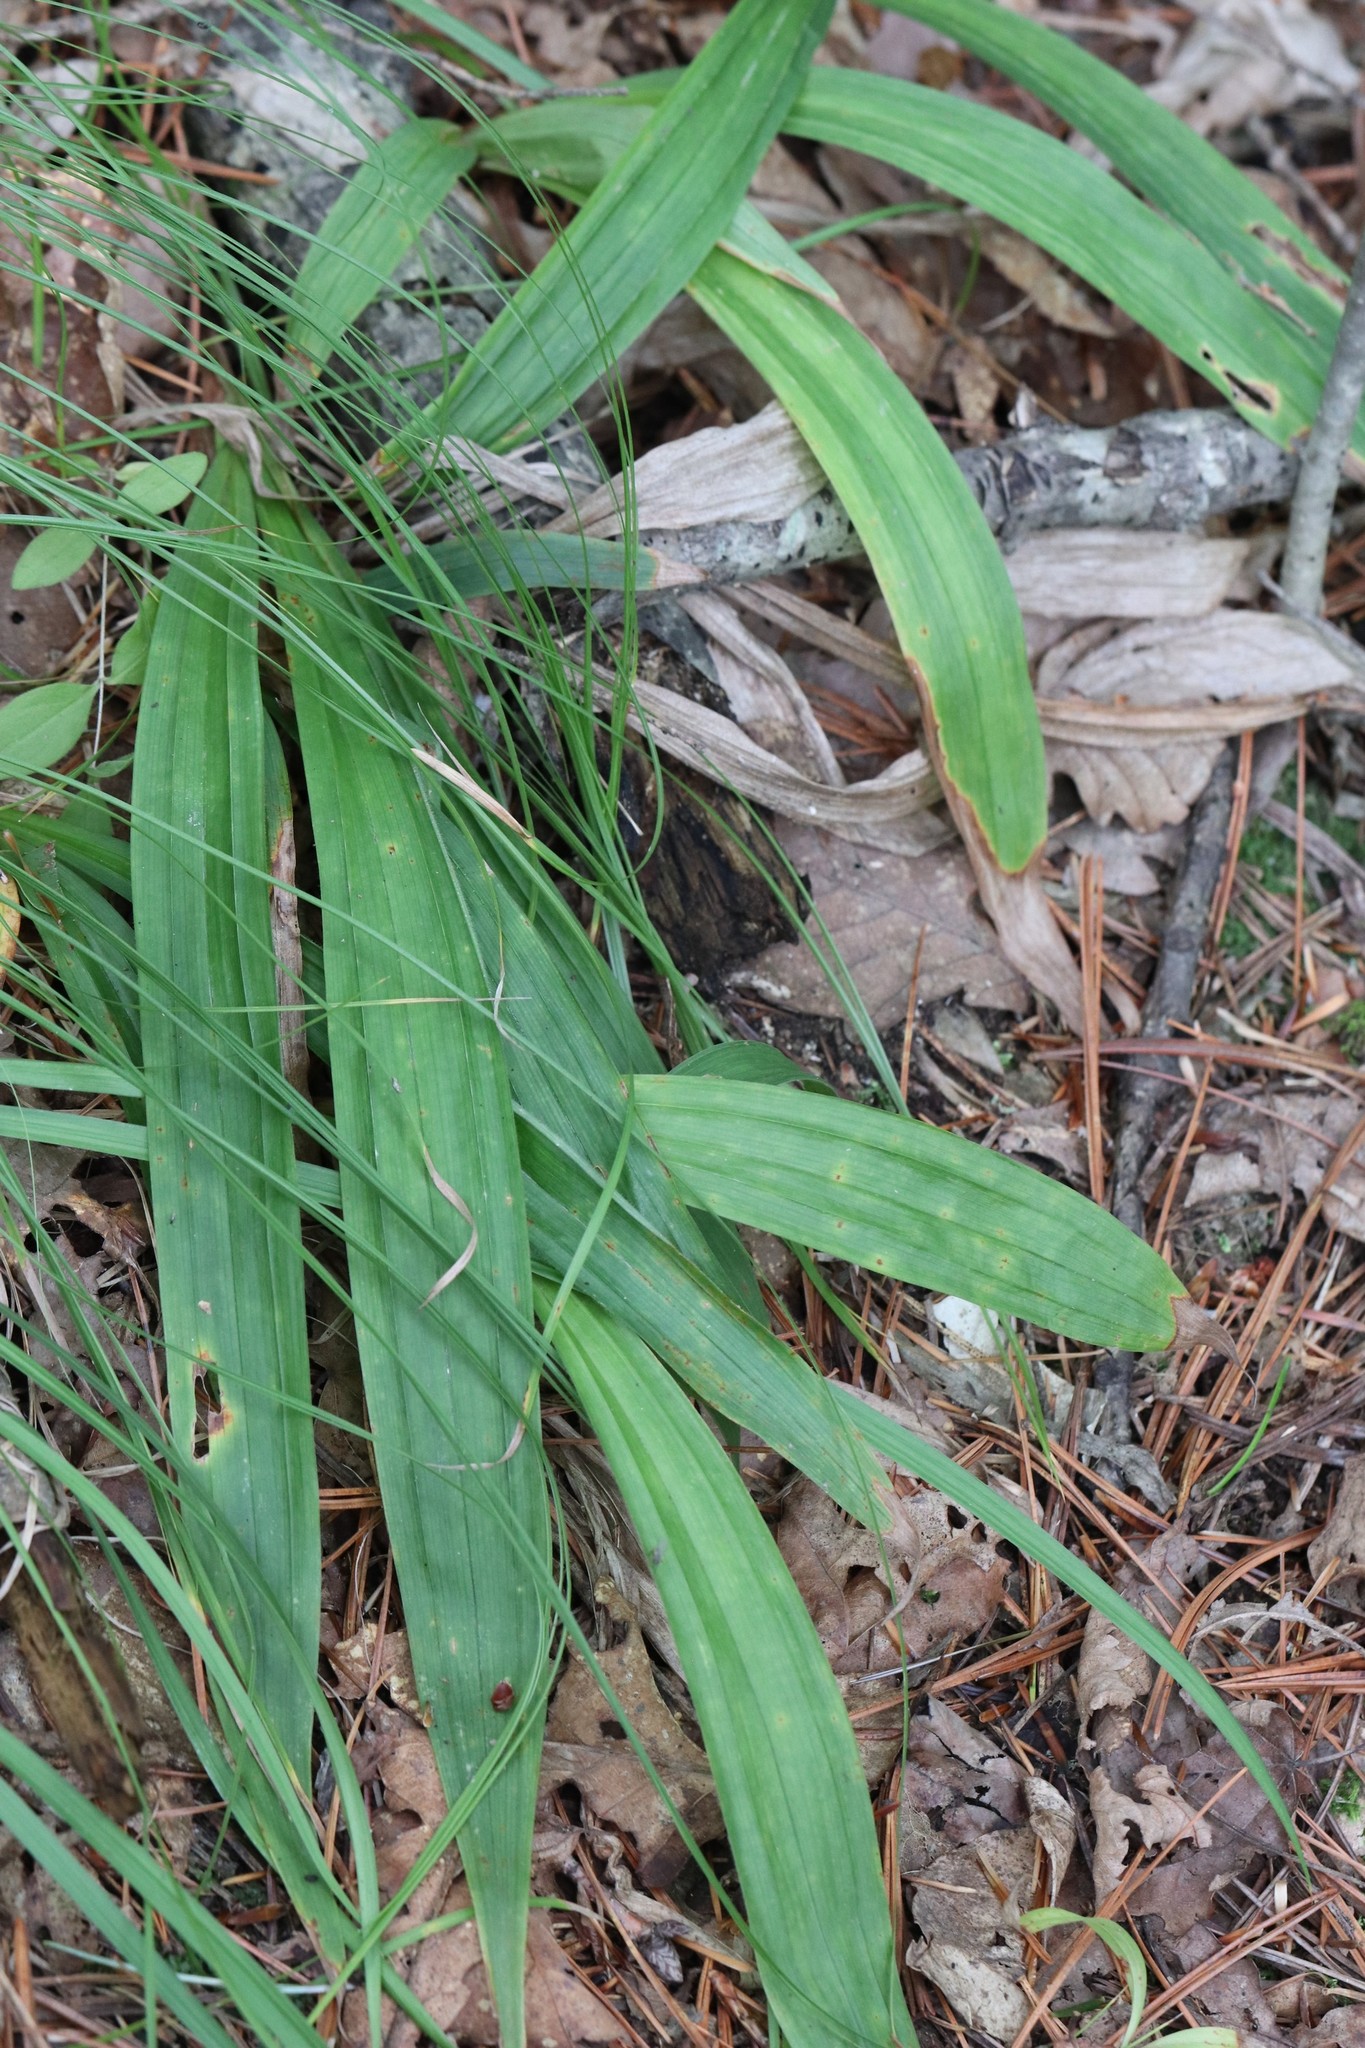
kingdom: Plantae
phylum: Tracheophyta
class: Liliopsida
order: Poales
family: Cyperaceae
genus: Carex
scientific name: Carex siderosticta
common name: Broadleaf sedge
